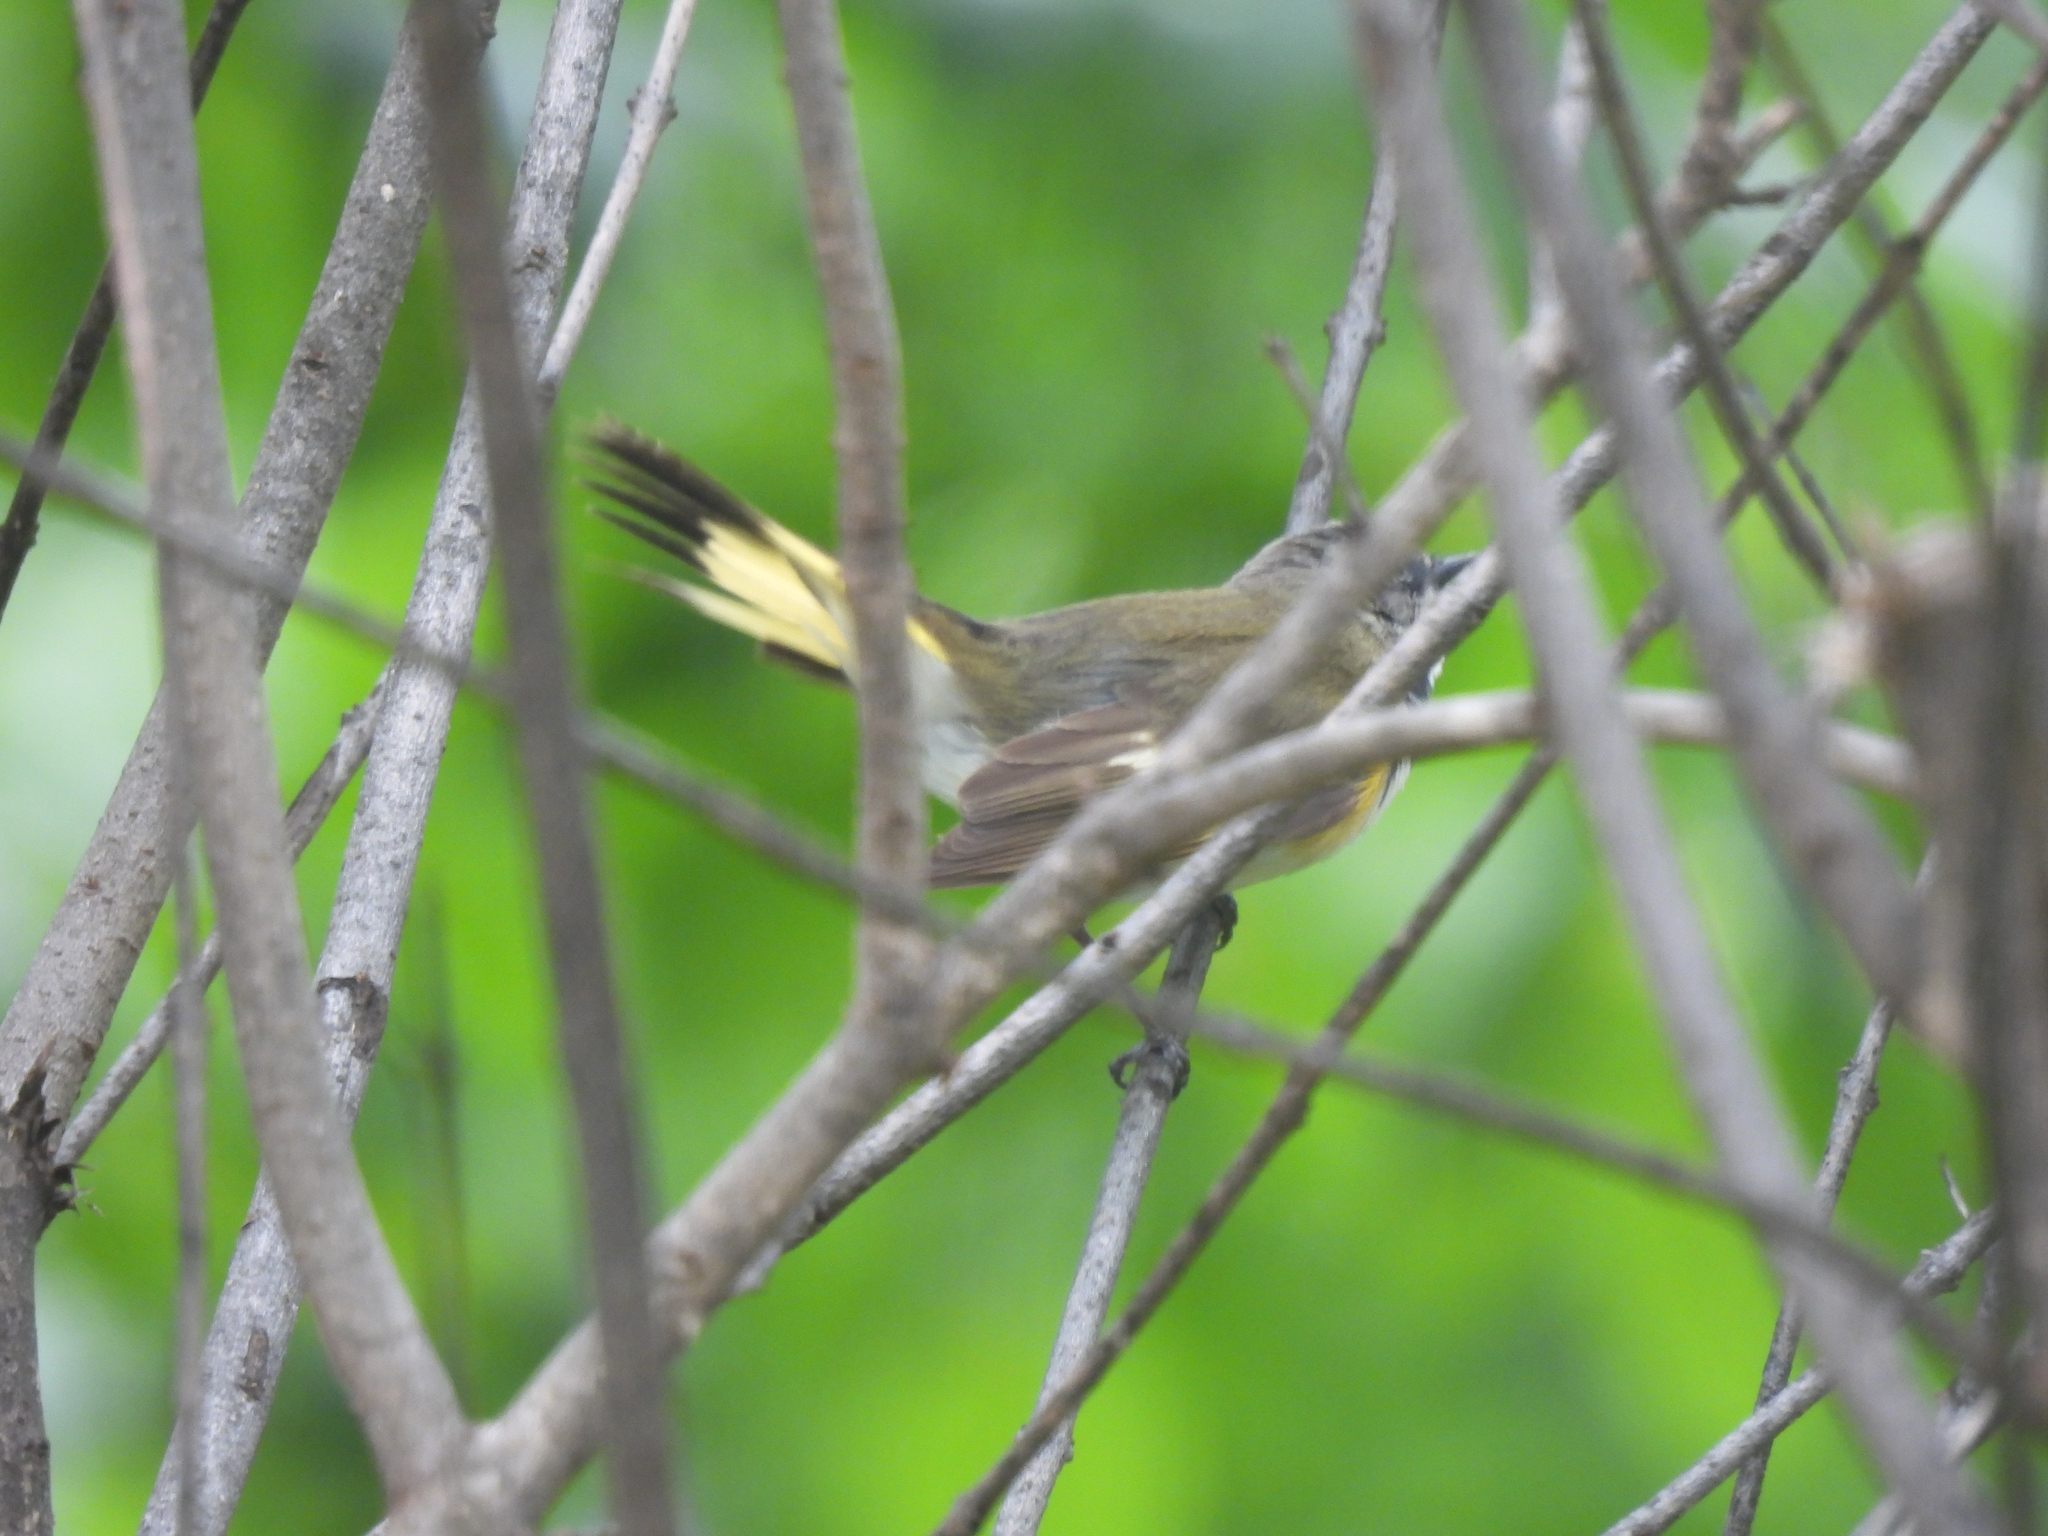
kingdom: Animalia
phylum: Chordata
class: Aves
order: Passeriformes
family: Parulidae
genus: Setophaga
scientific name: Setophaga ruticilla
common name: American redstart
